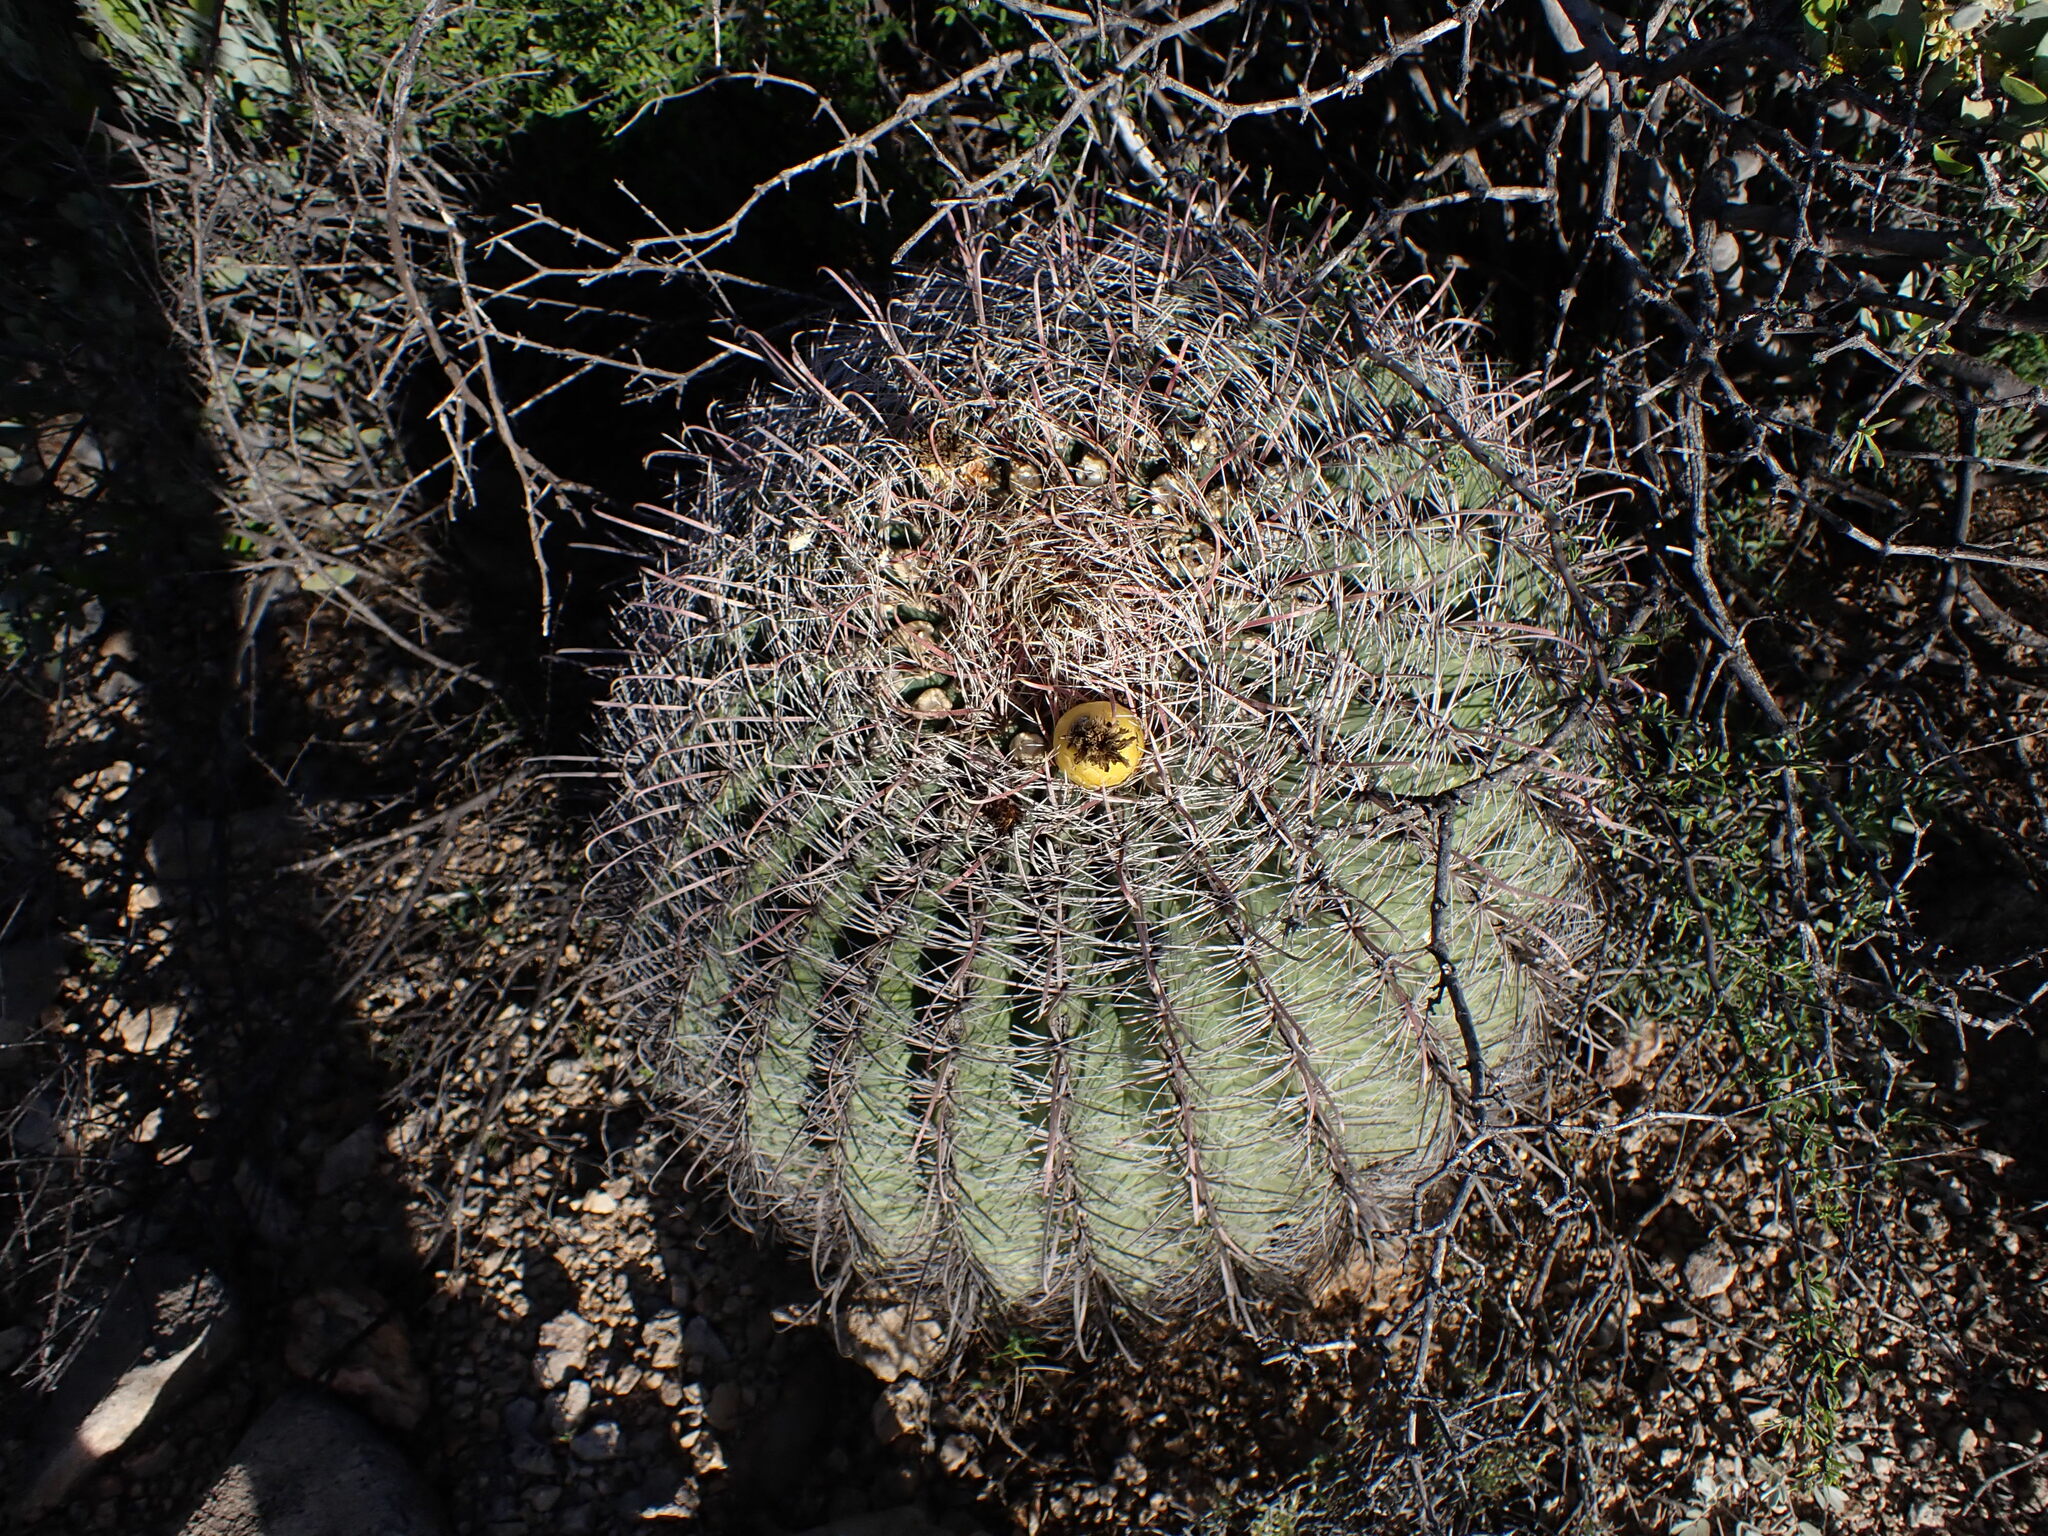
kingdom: Plantae
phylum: Tracheophyta
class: Magnoliopsida
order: Caryophyllales
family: Cactaceae
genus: Ferocactus
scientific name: Ferocactus wislizeni
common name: Candy barrel cactus
